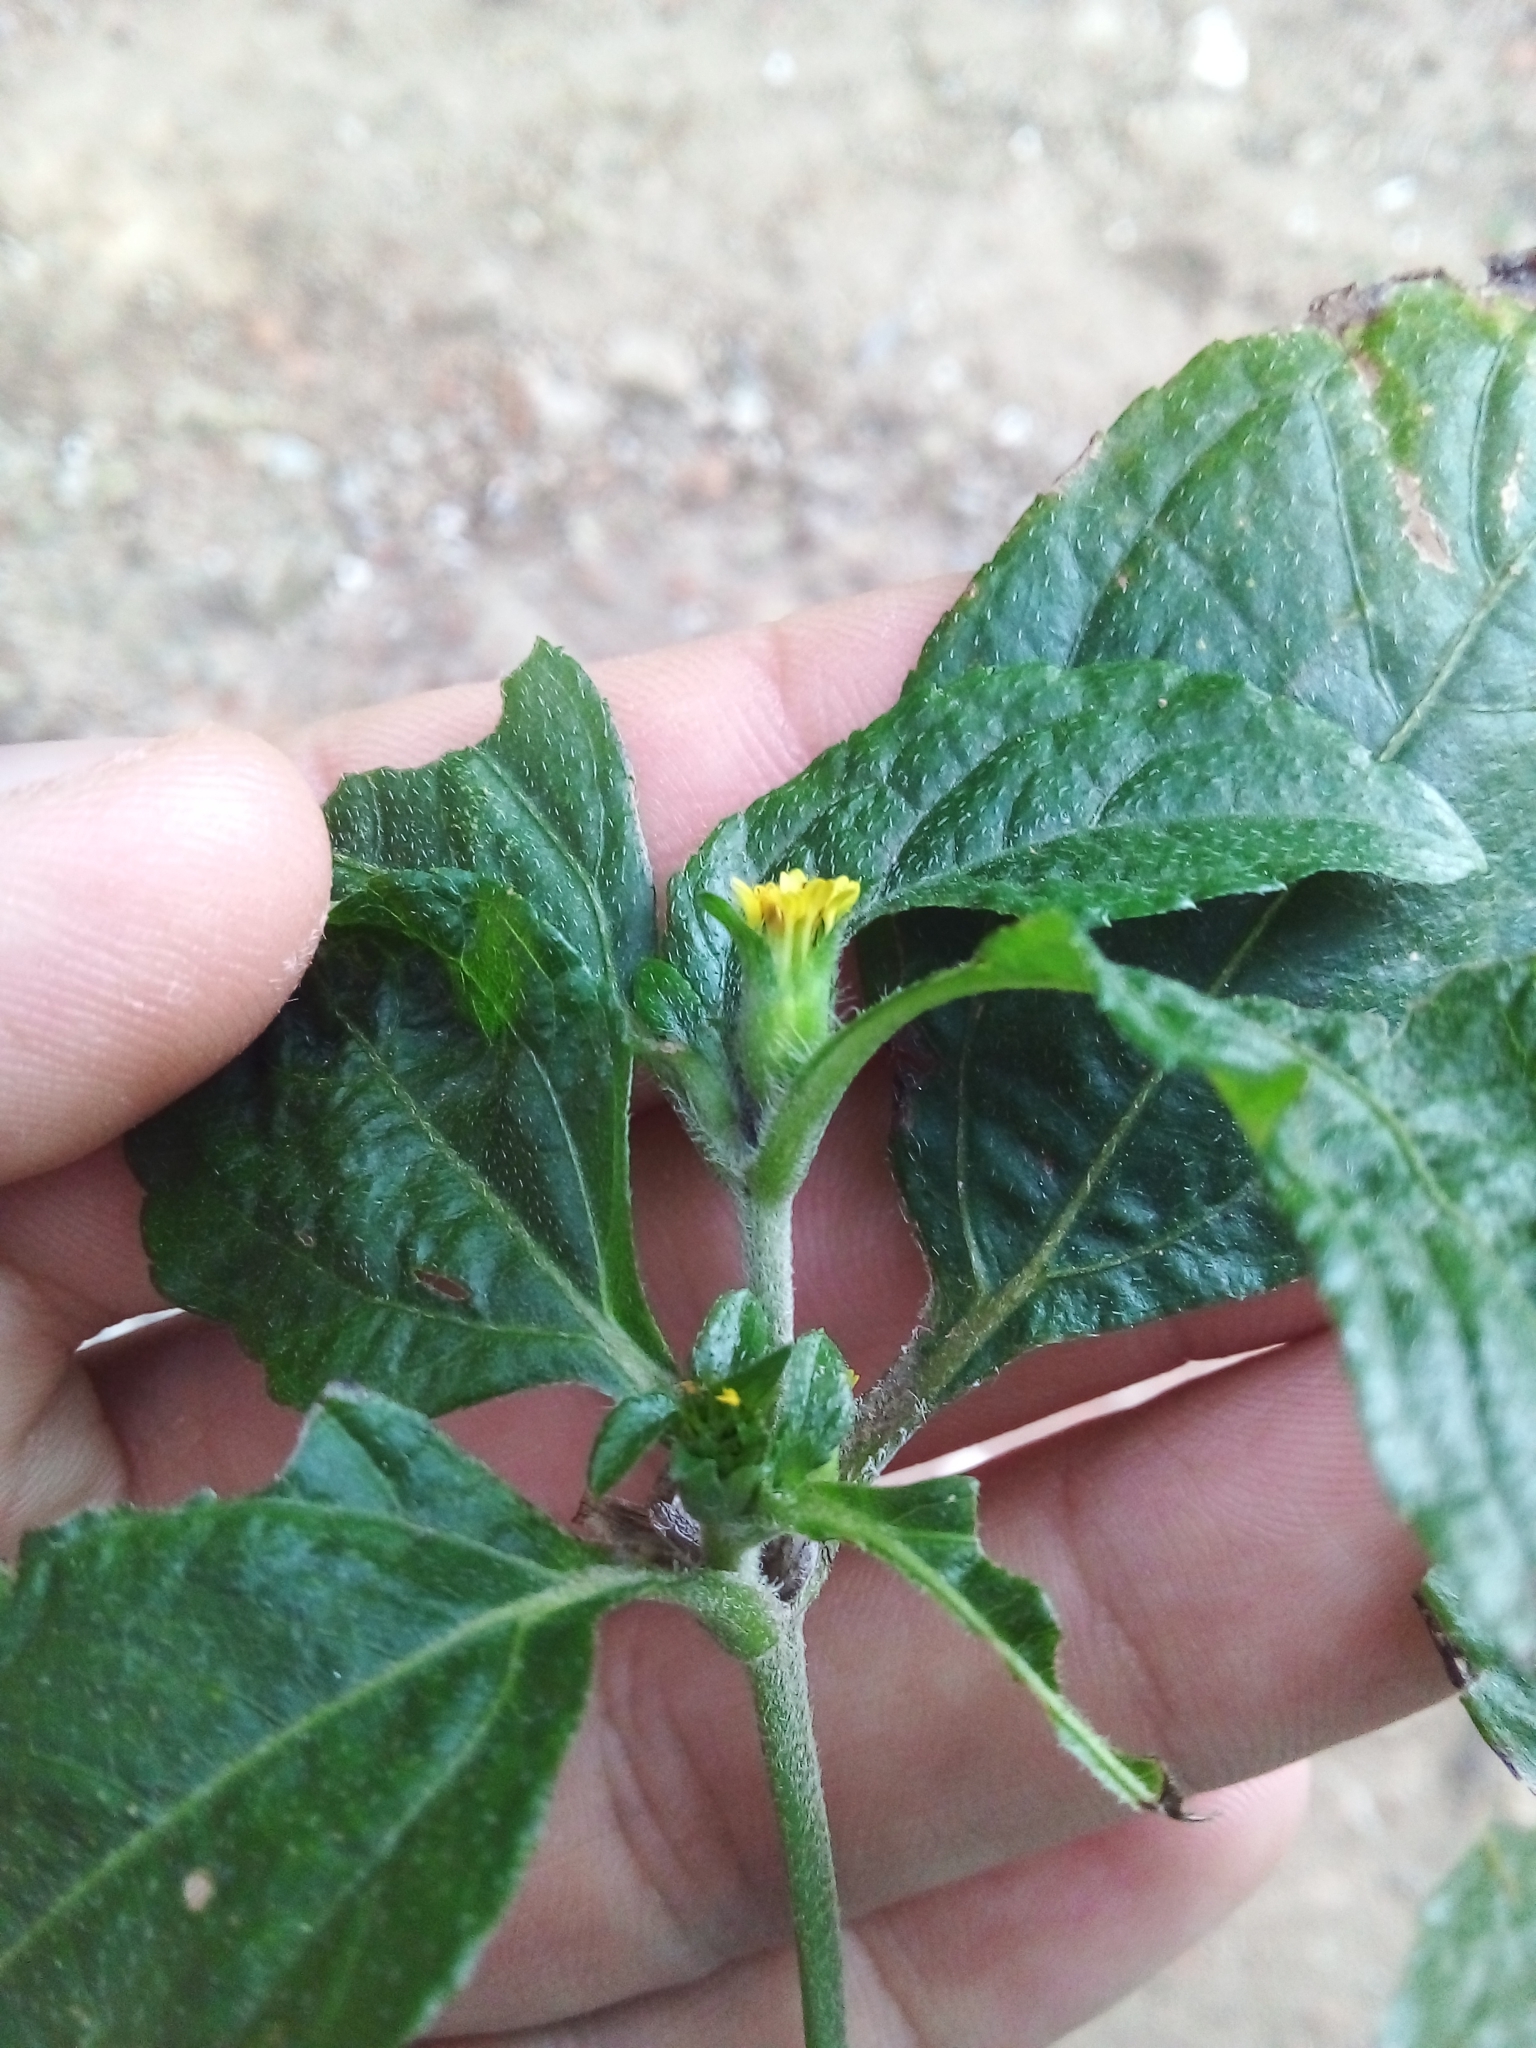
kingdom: Plantae
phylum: Tracheophyta
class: Magnoliopsida
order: Asterales
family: Asteraceae
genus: Synedrella
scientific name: Synedrella nodiflora
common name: Nodeweed
